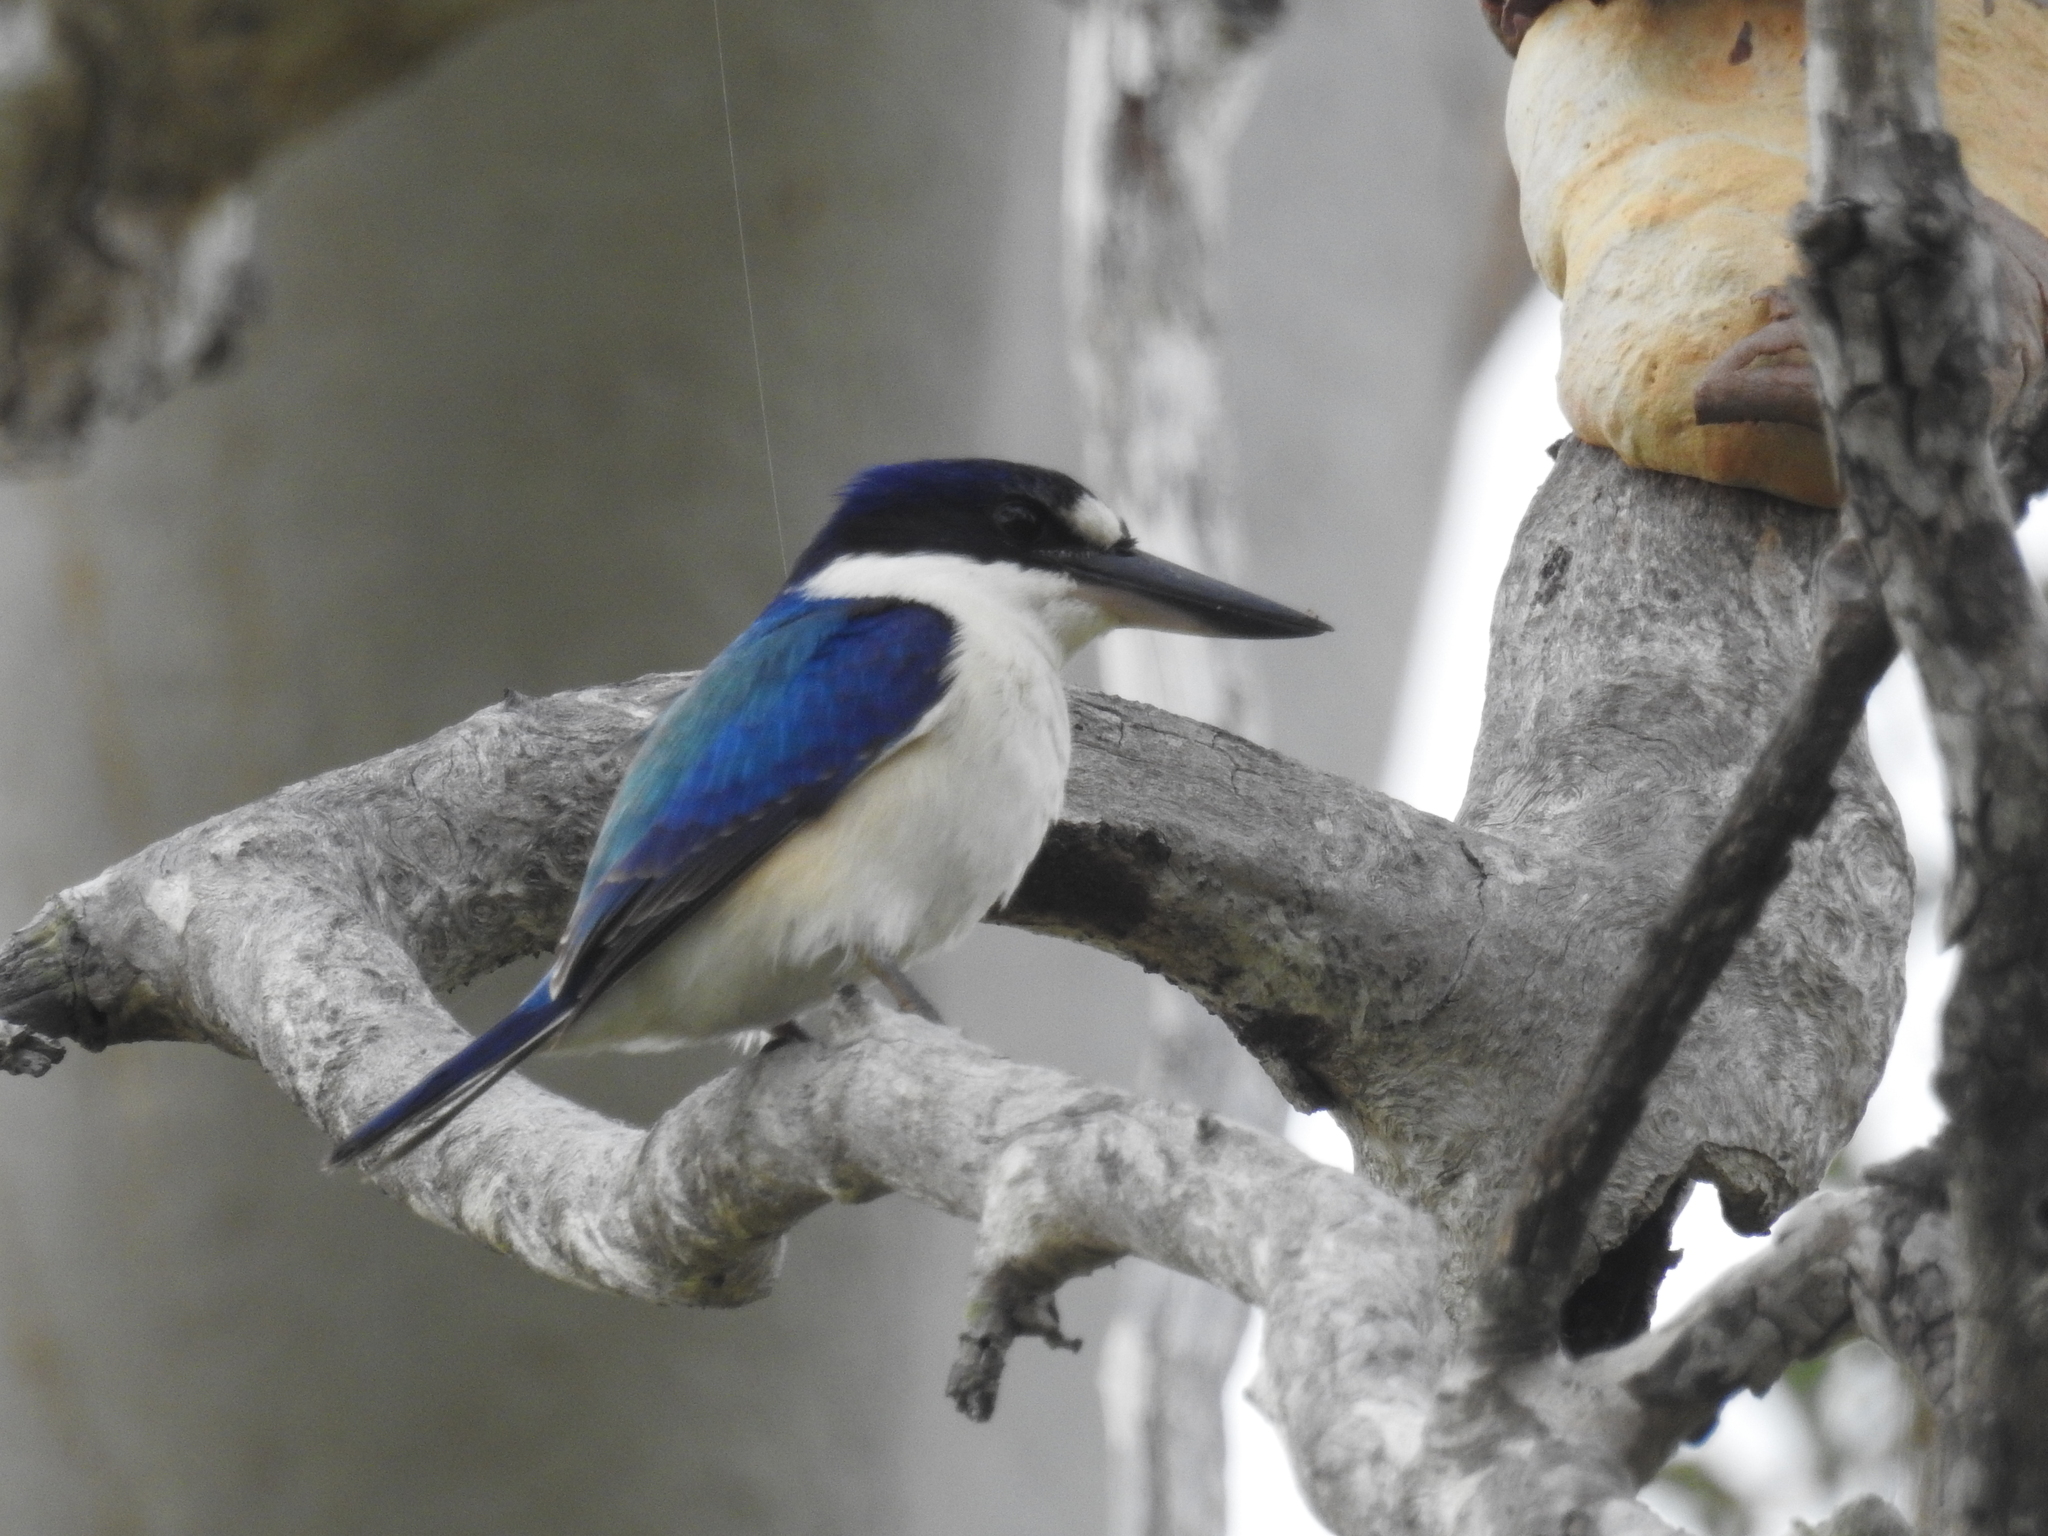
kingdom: Animalia
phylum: Chordata
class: Aves
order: Coraciiformes
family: Alcedinidae
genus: Todiramphus
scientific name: Todiramphus macleayii
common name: Forest kingfisher
